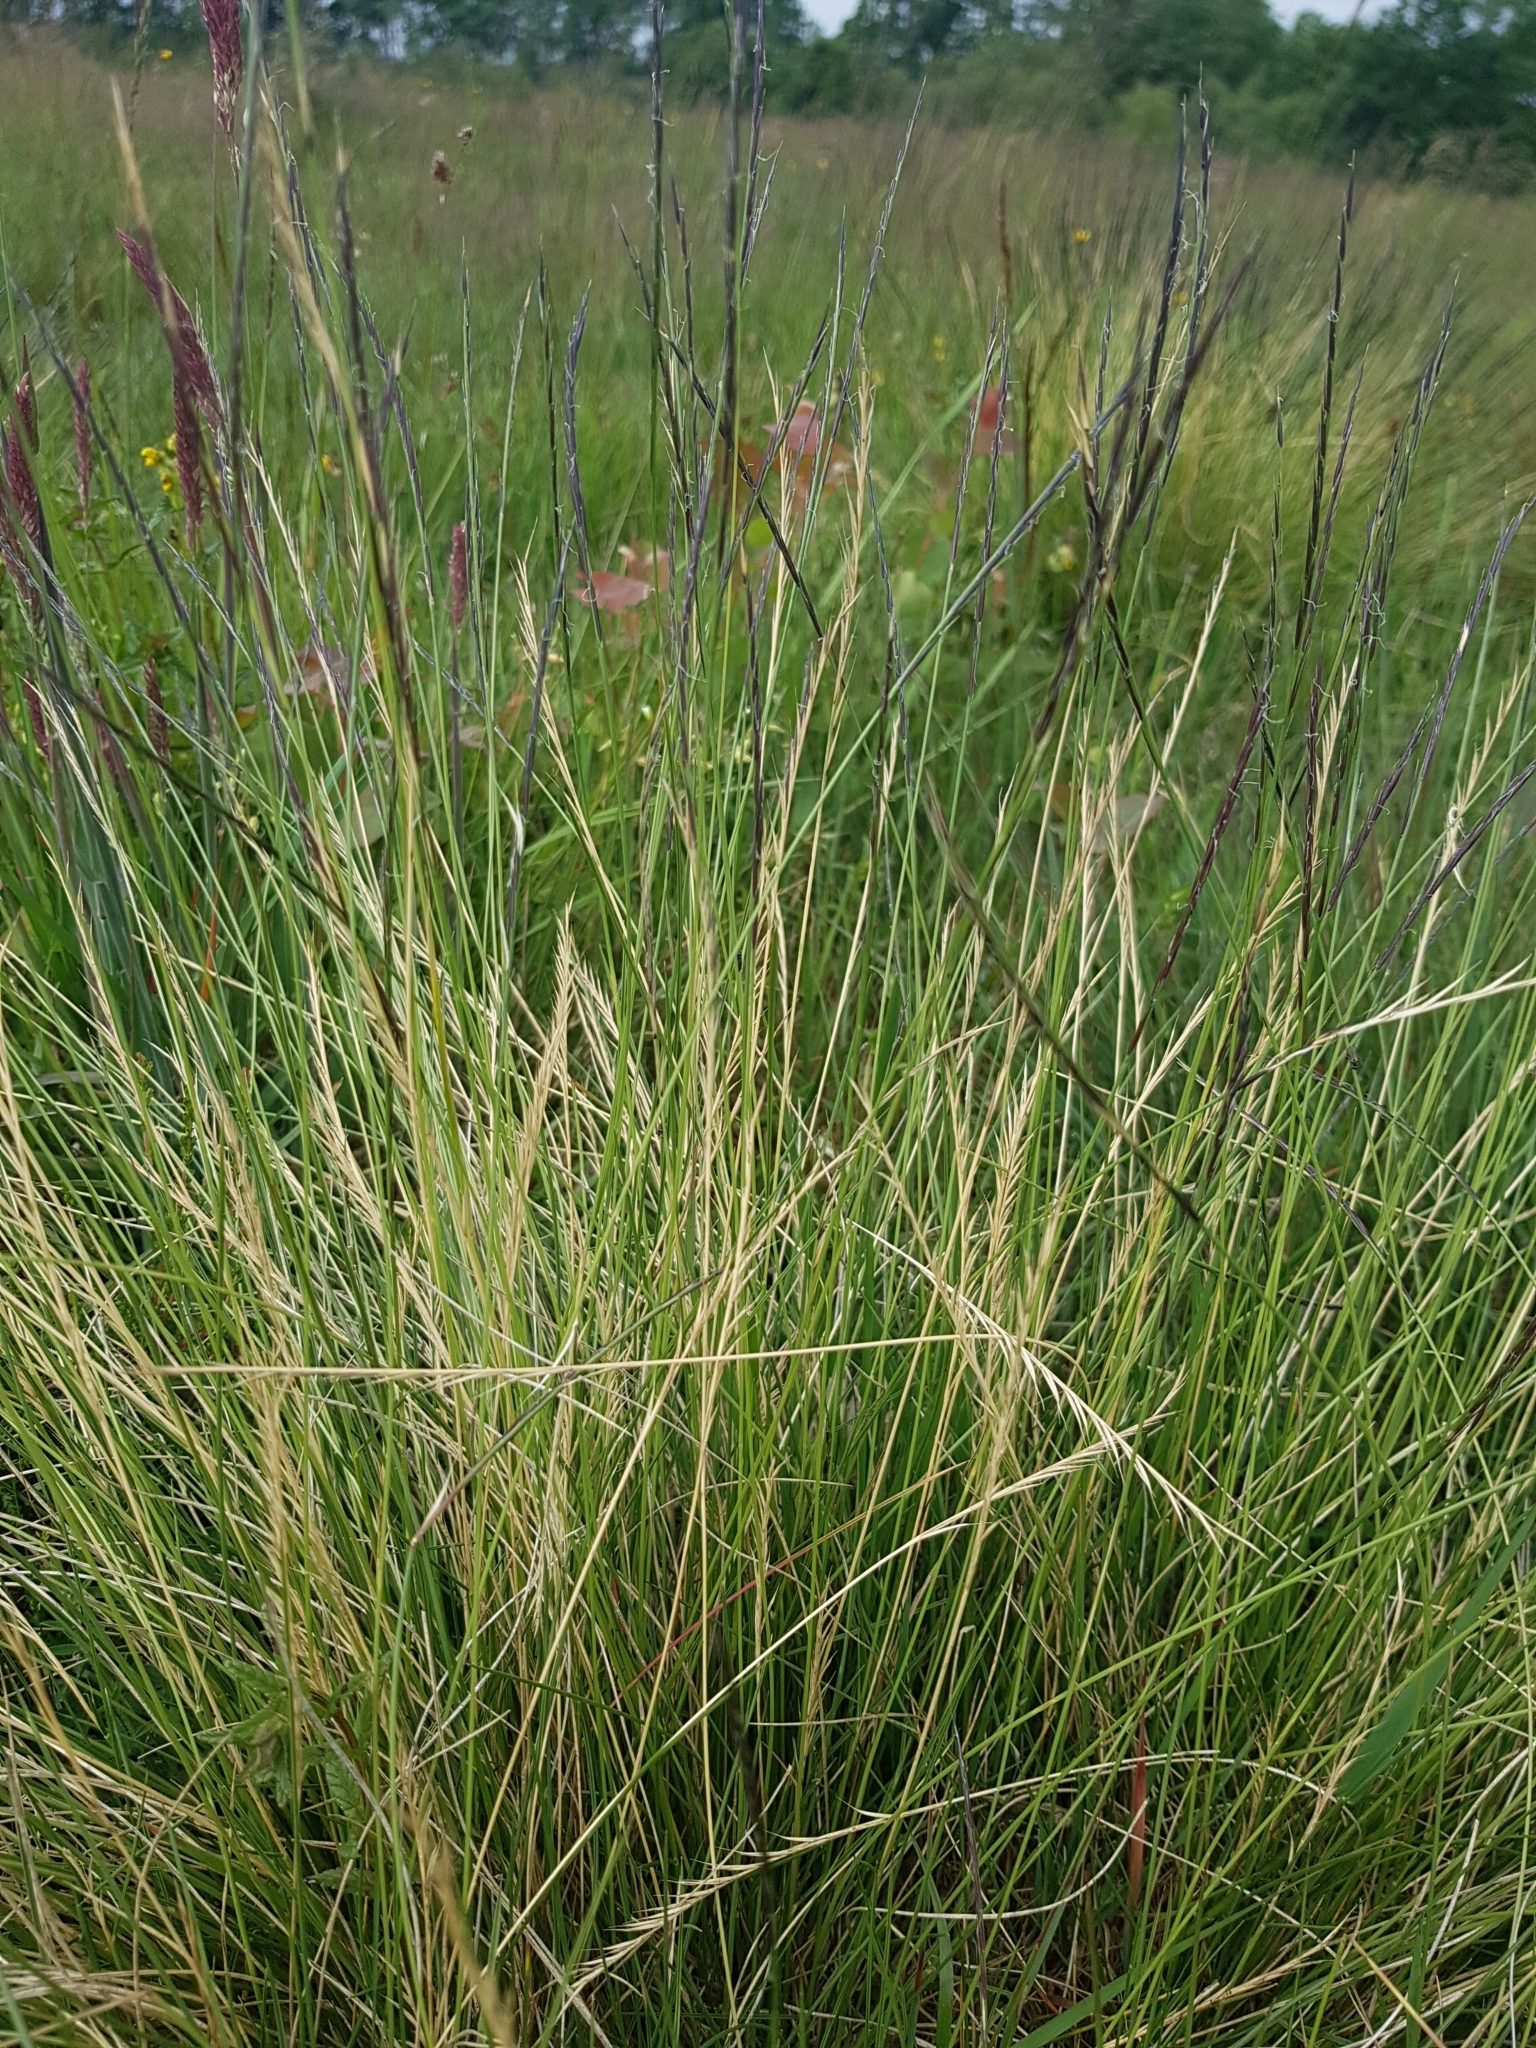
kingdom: Plantae
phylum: Tracheophyta
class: Liliopsida
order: Poales
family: Poaceae
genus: Nardus
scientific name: Nardus stricta
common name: Mat-grass
